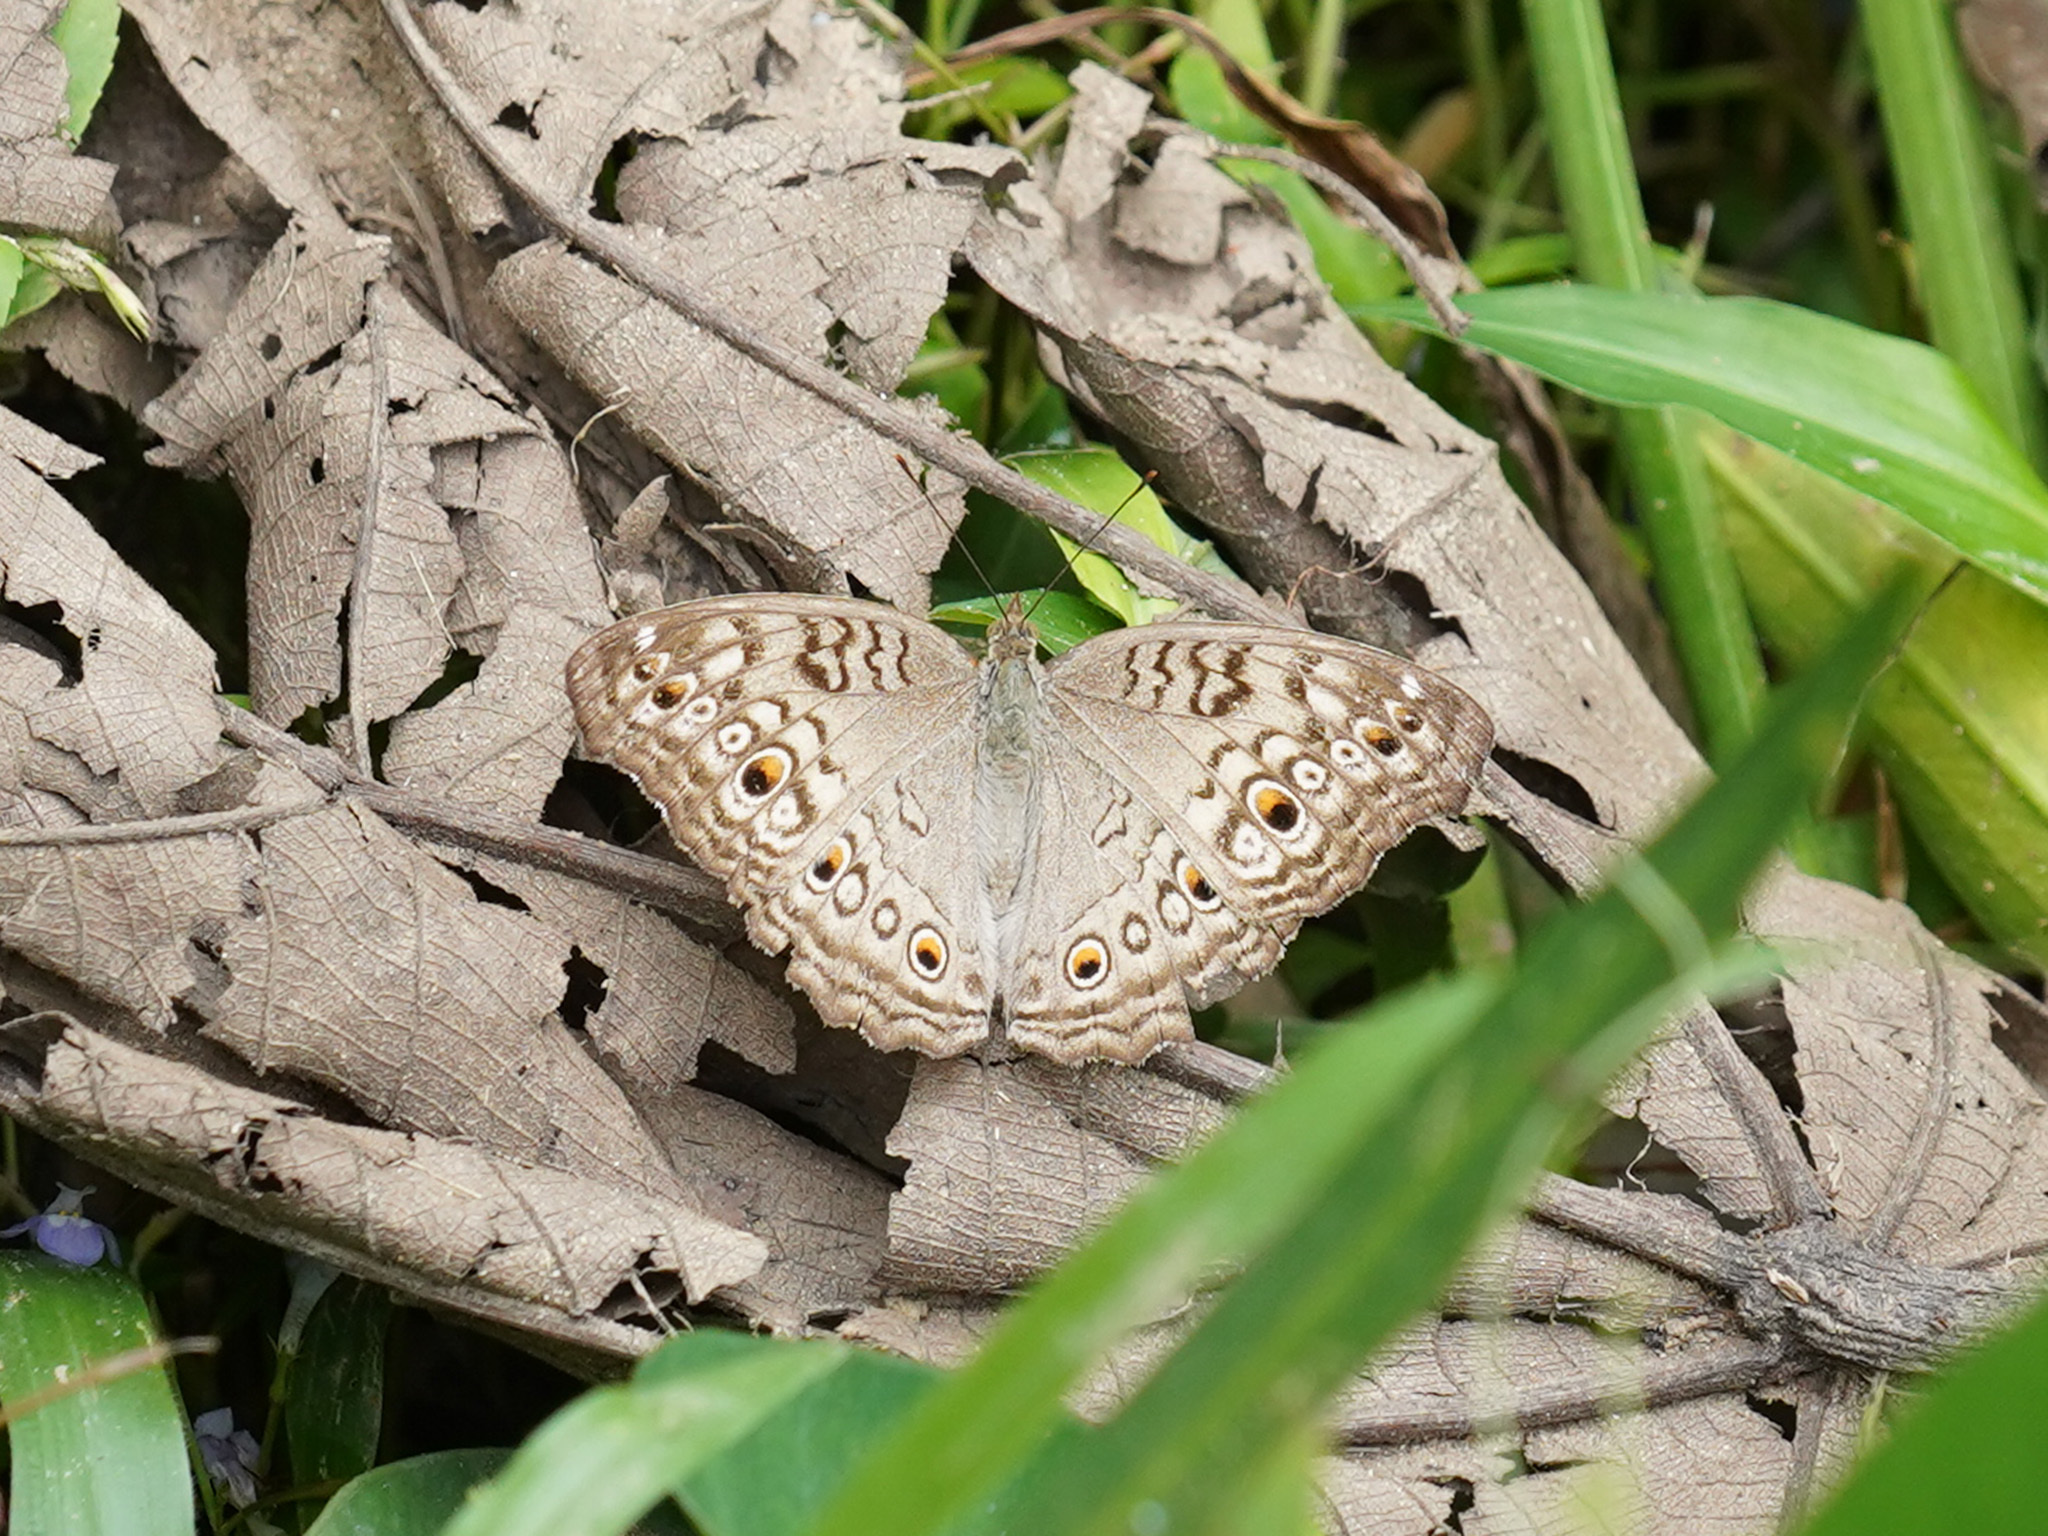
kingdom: Animalia
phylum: Arthropoda
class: Insecta
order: Lepidoptera
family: Nymphalidae
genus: Junonia
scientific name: Junonia atlites
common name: Grey pansy
